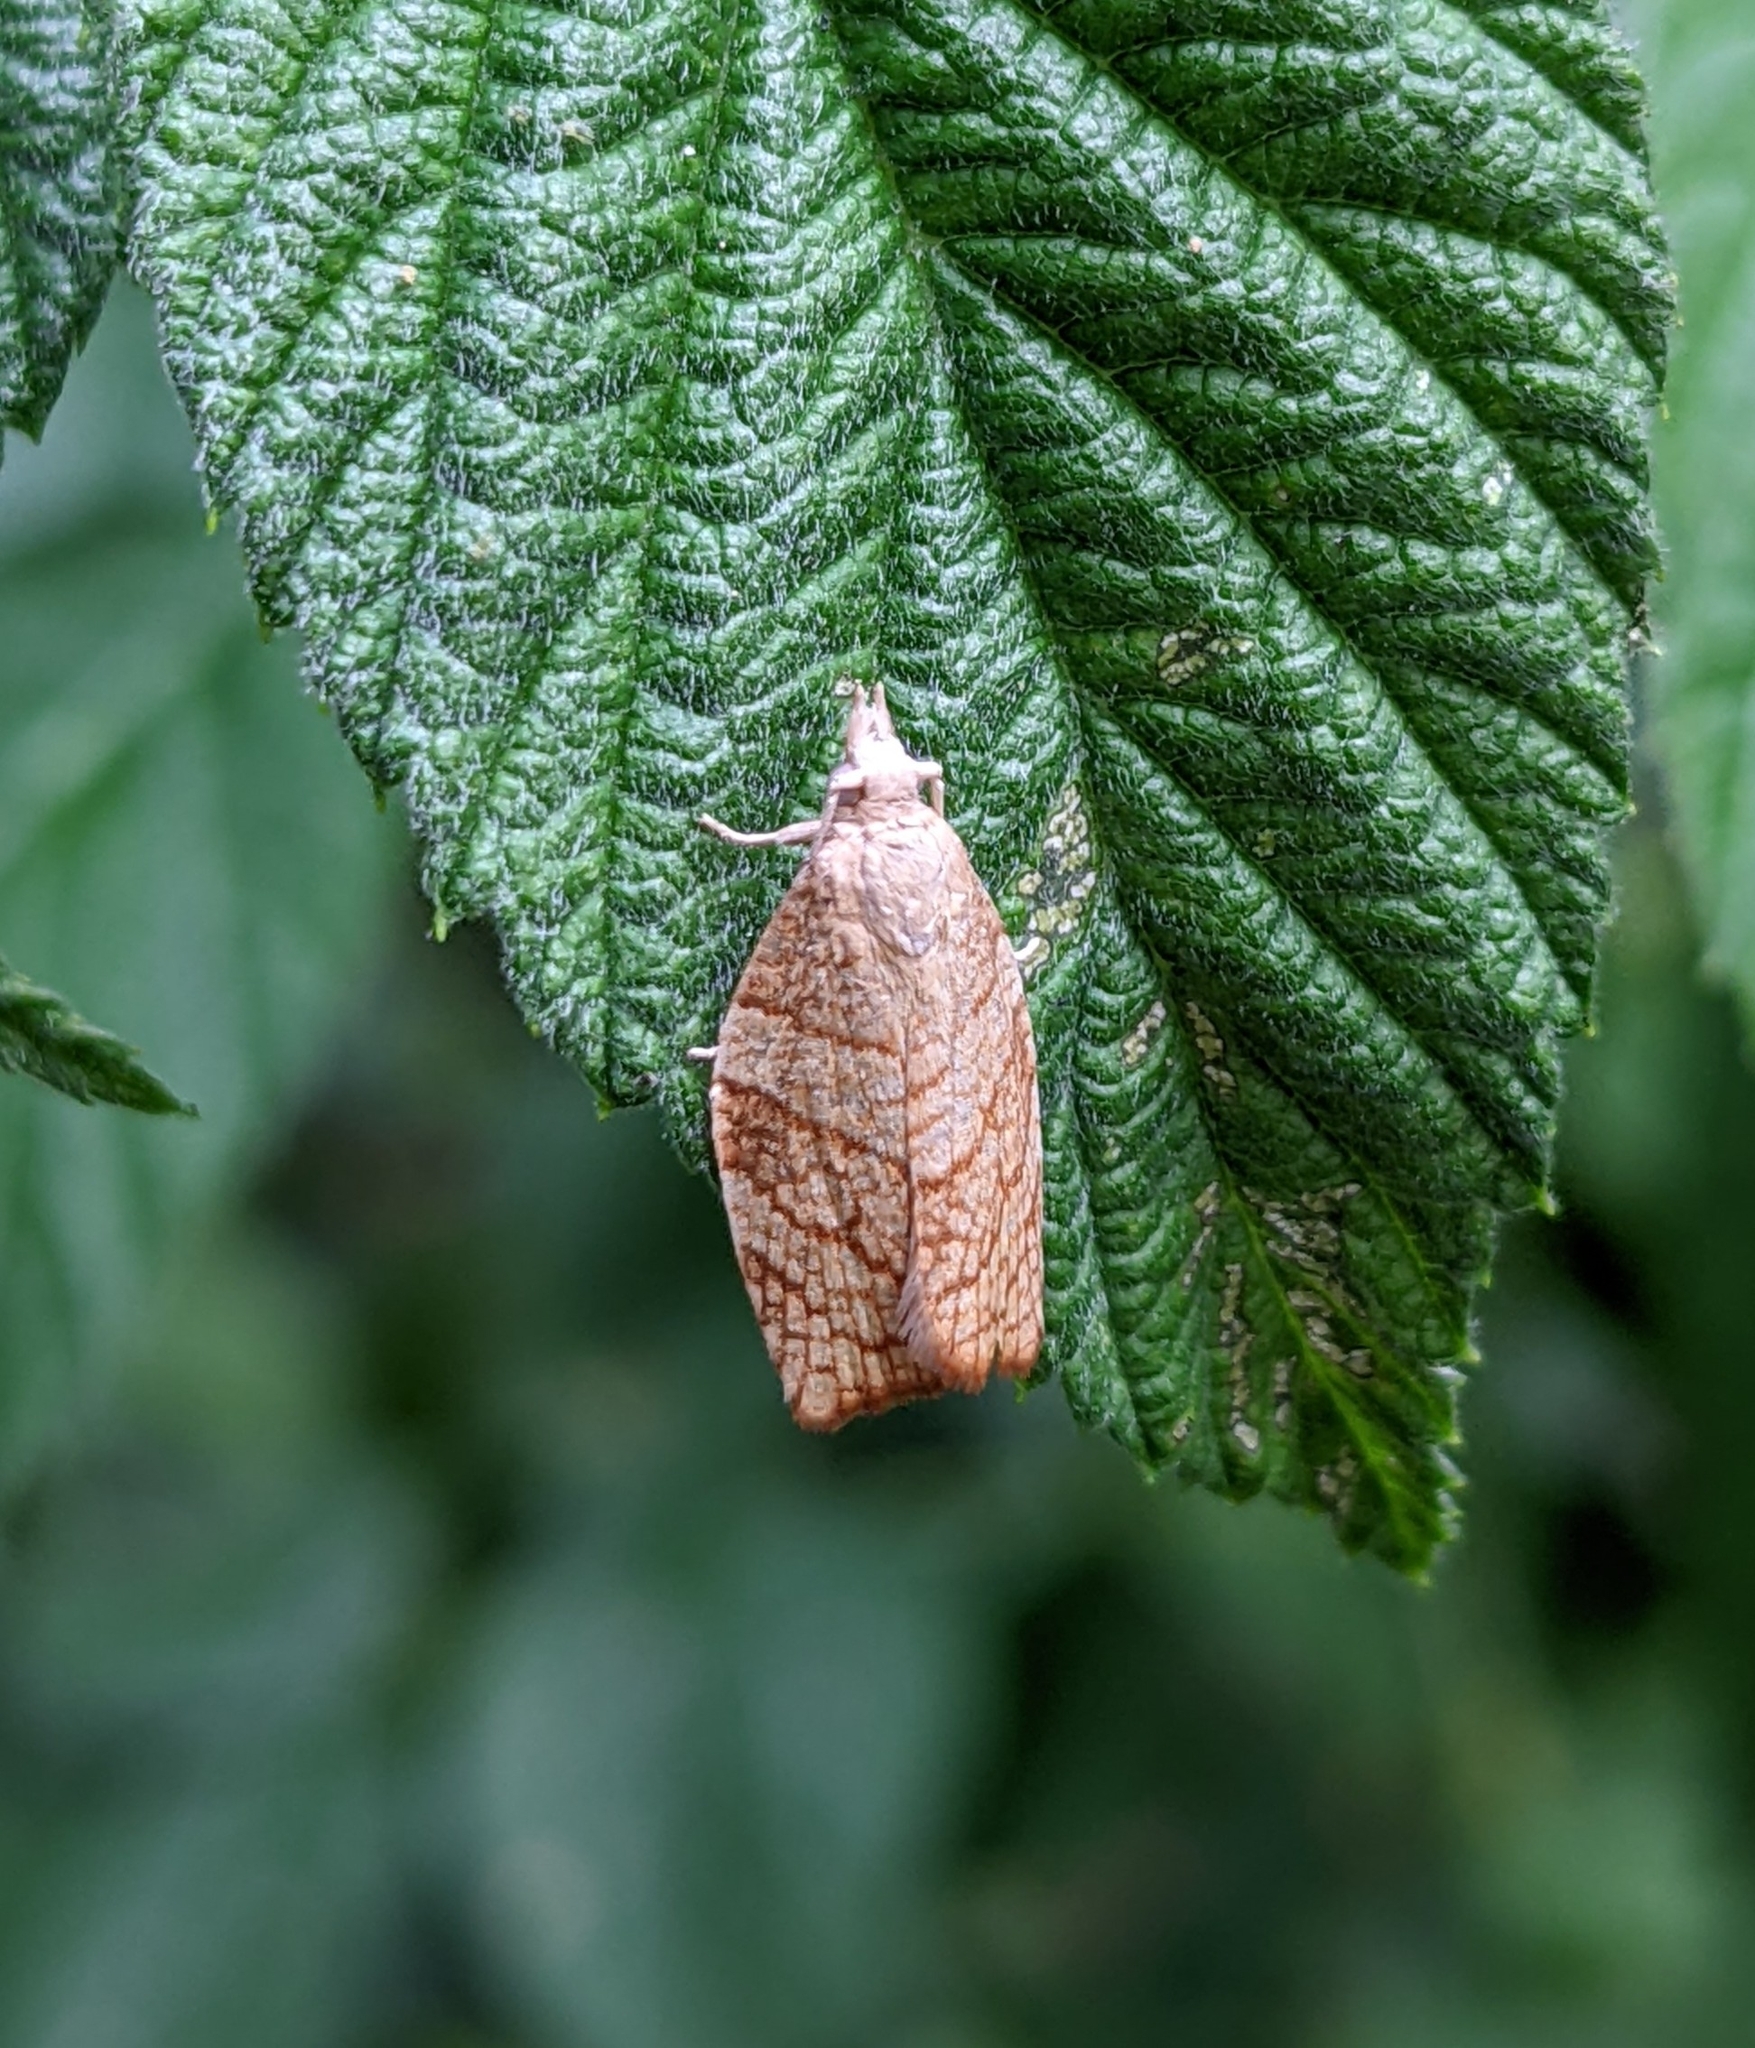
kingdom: Animalia
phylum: Arthropoda
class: Insecta
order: Lepidoptera
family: Tortricidae
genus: Pandemis
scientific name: Pandemis corylana
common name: Chequered fruit-tree tortrix
